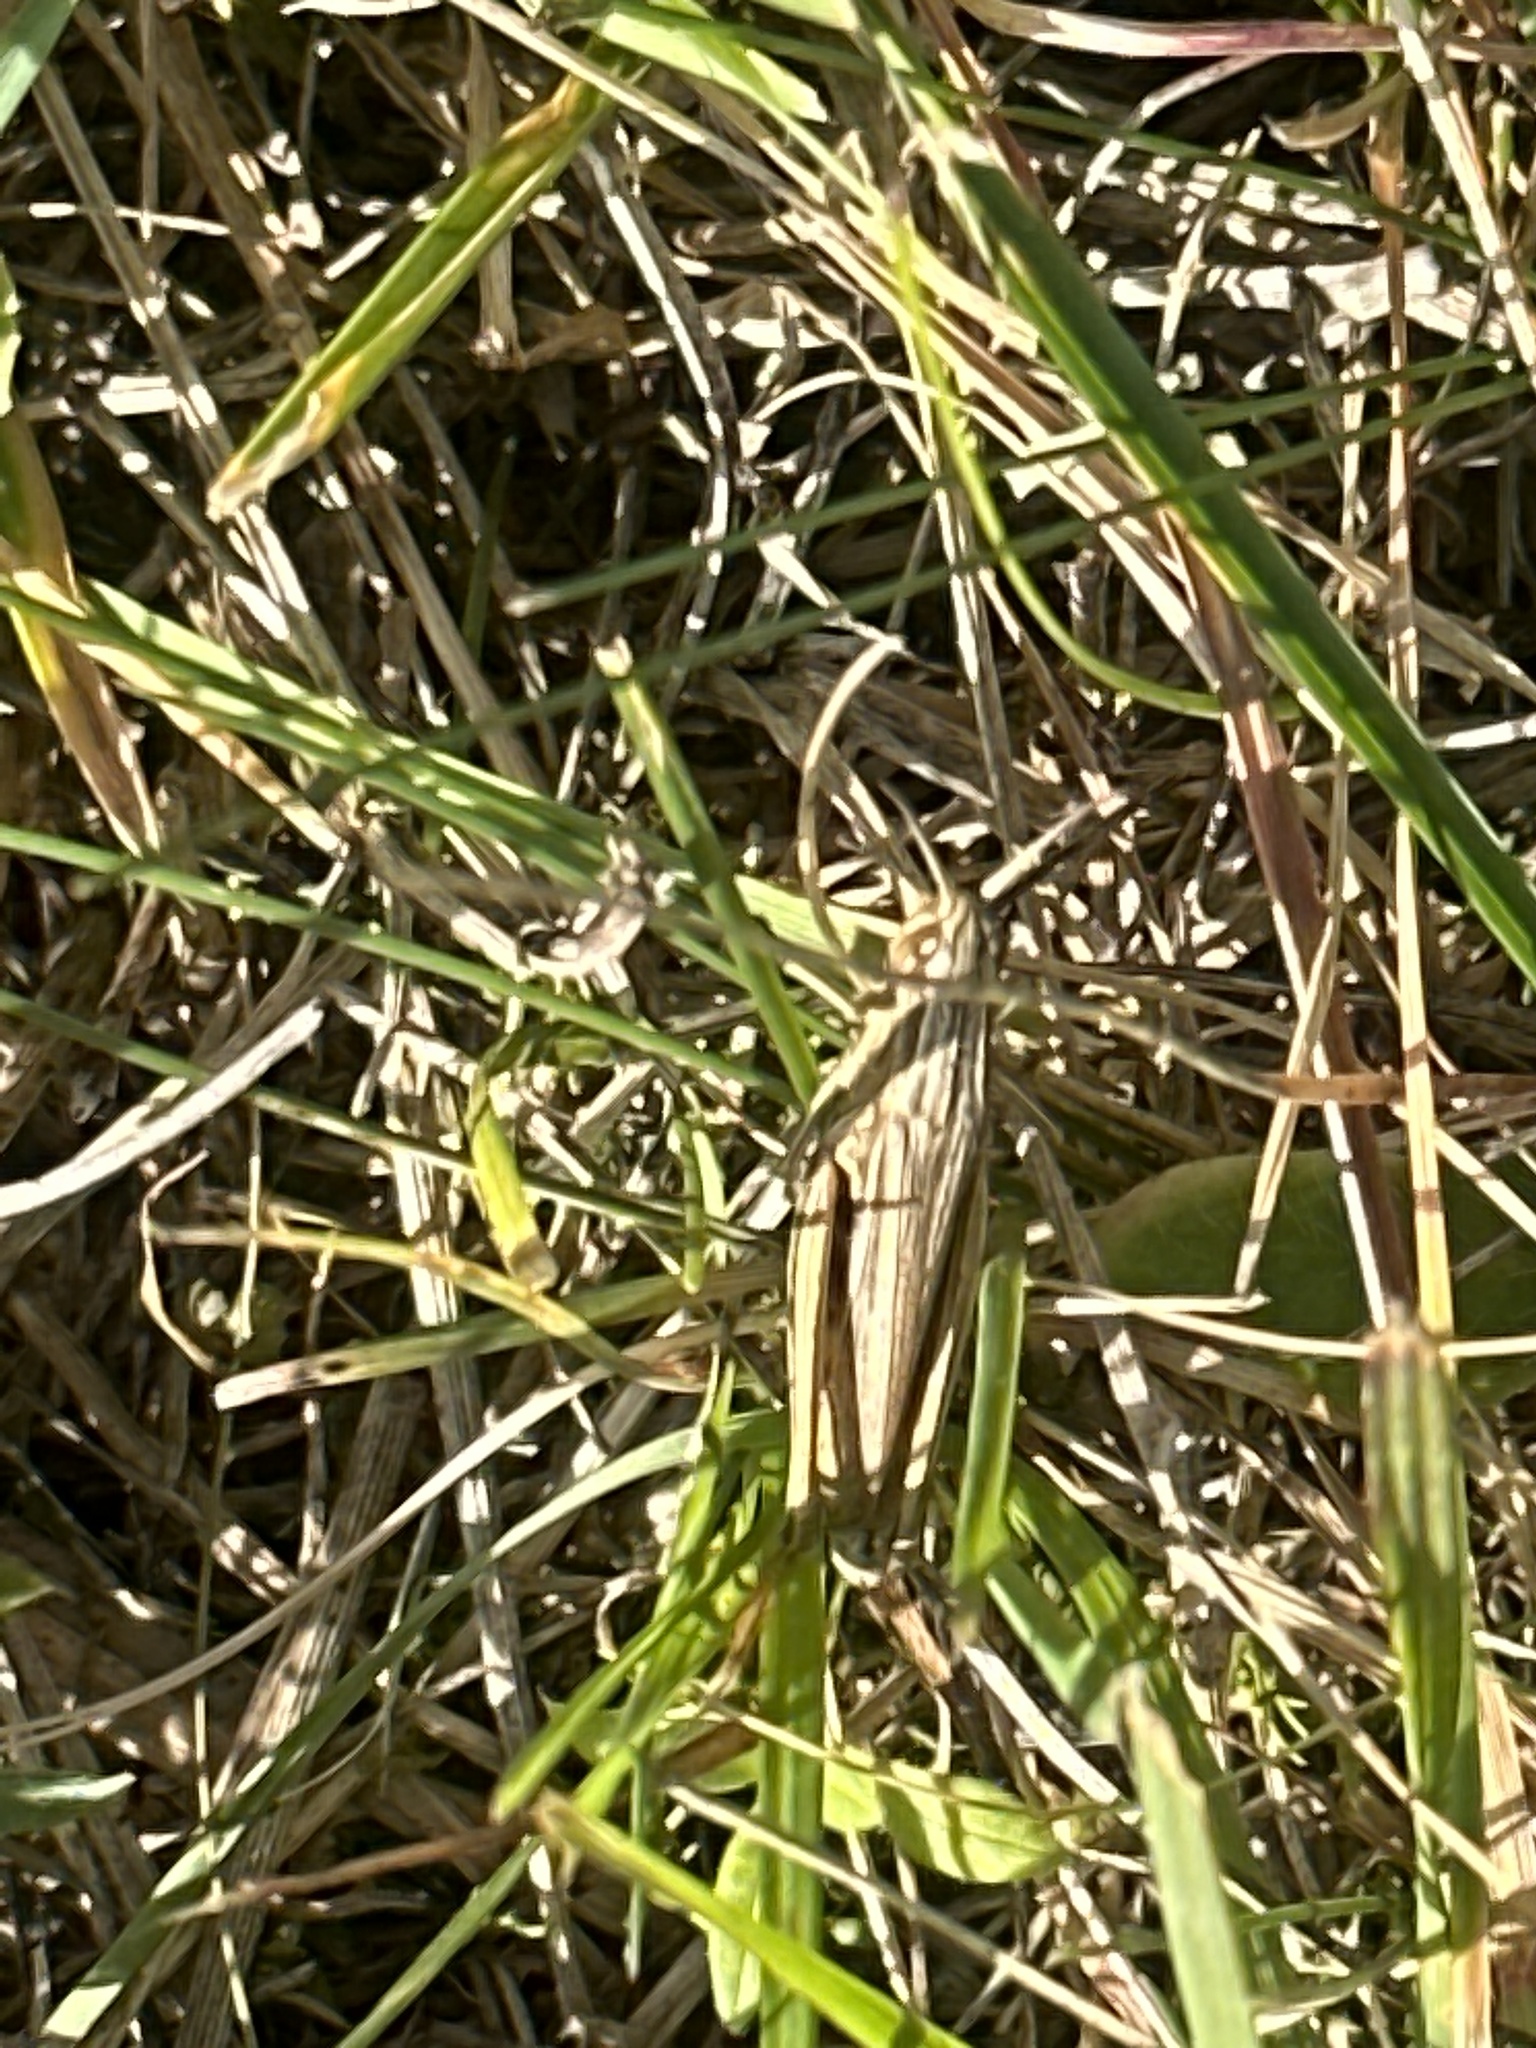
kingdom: Animalia
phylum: Arthropoda
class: Insecta
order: Orthoptera
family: Acrididae
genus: Chorthippus
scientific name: Chorthippus albomarginatus
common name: Lesser marsh grasshopper
